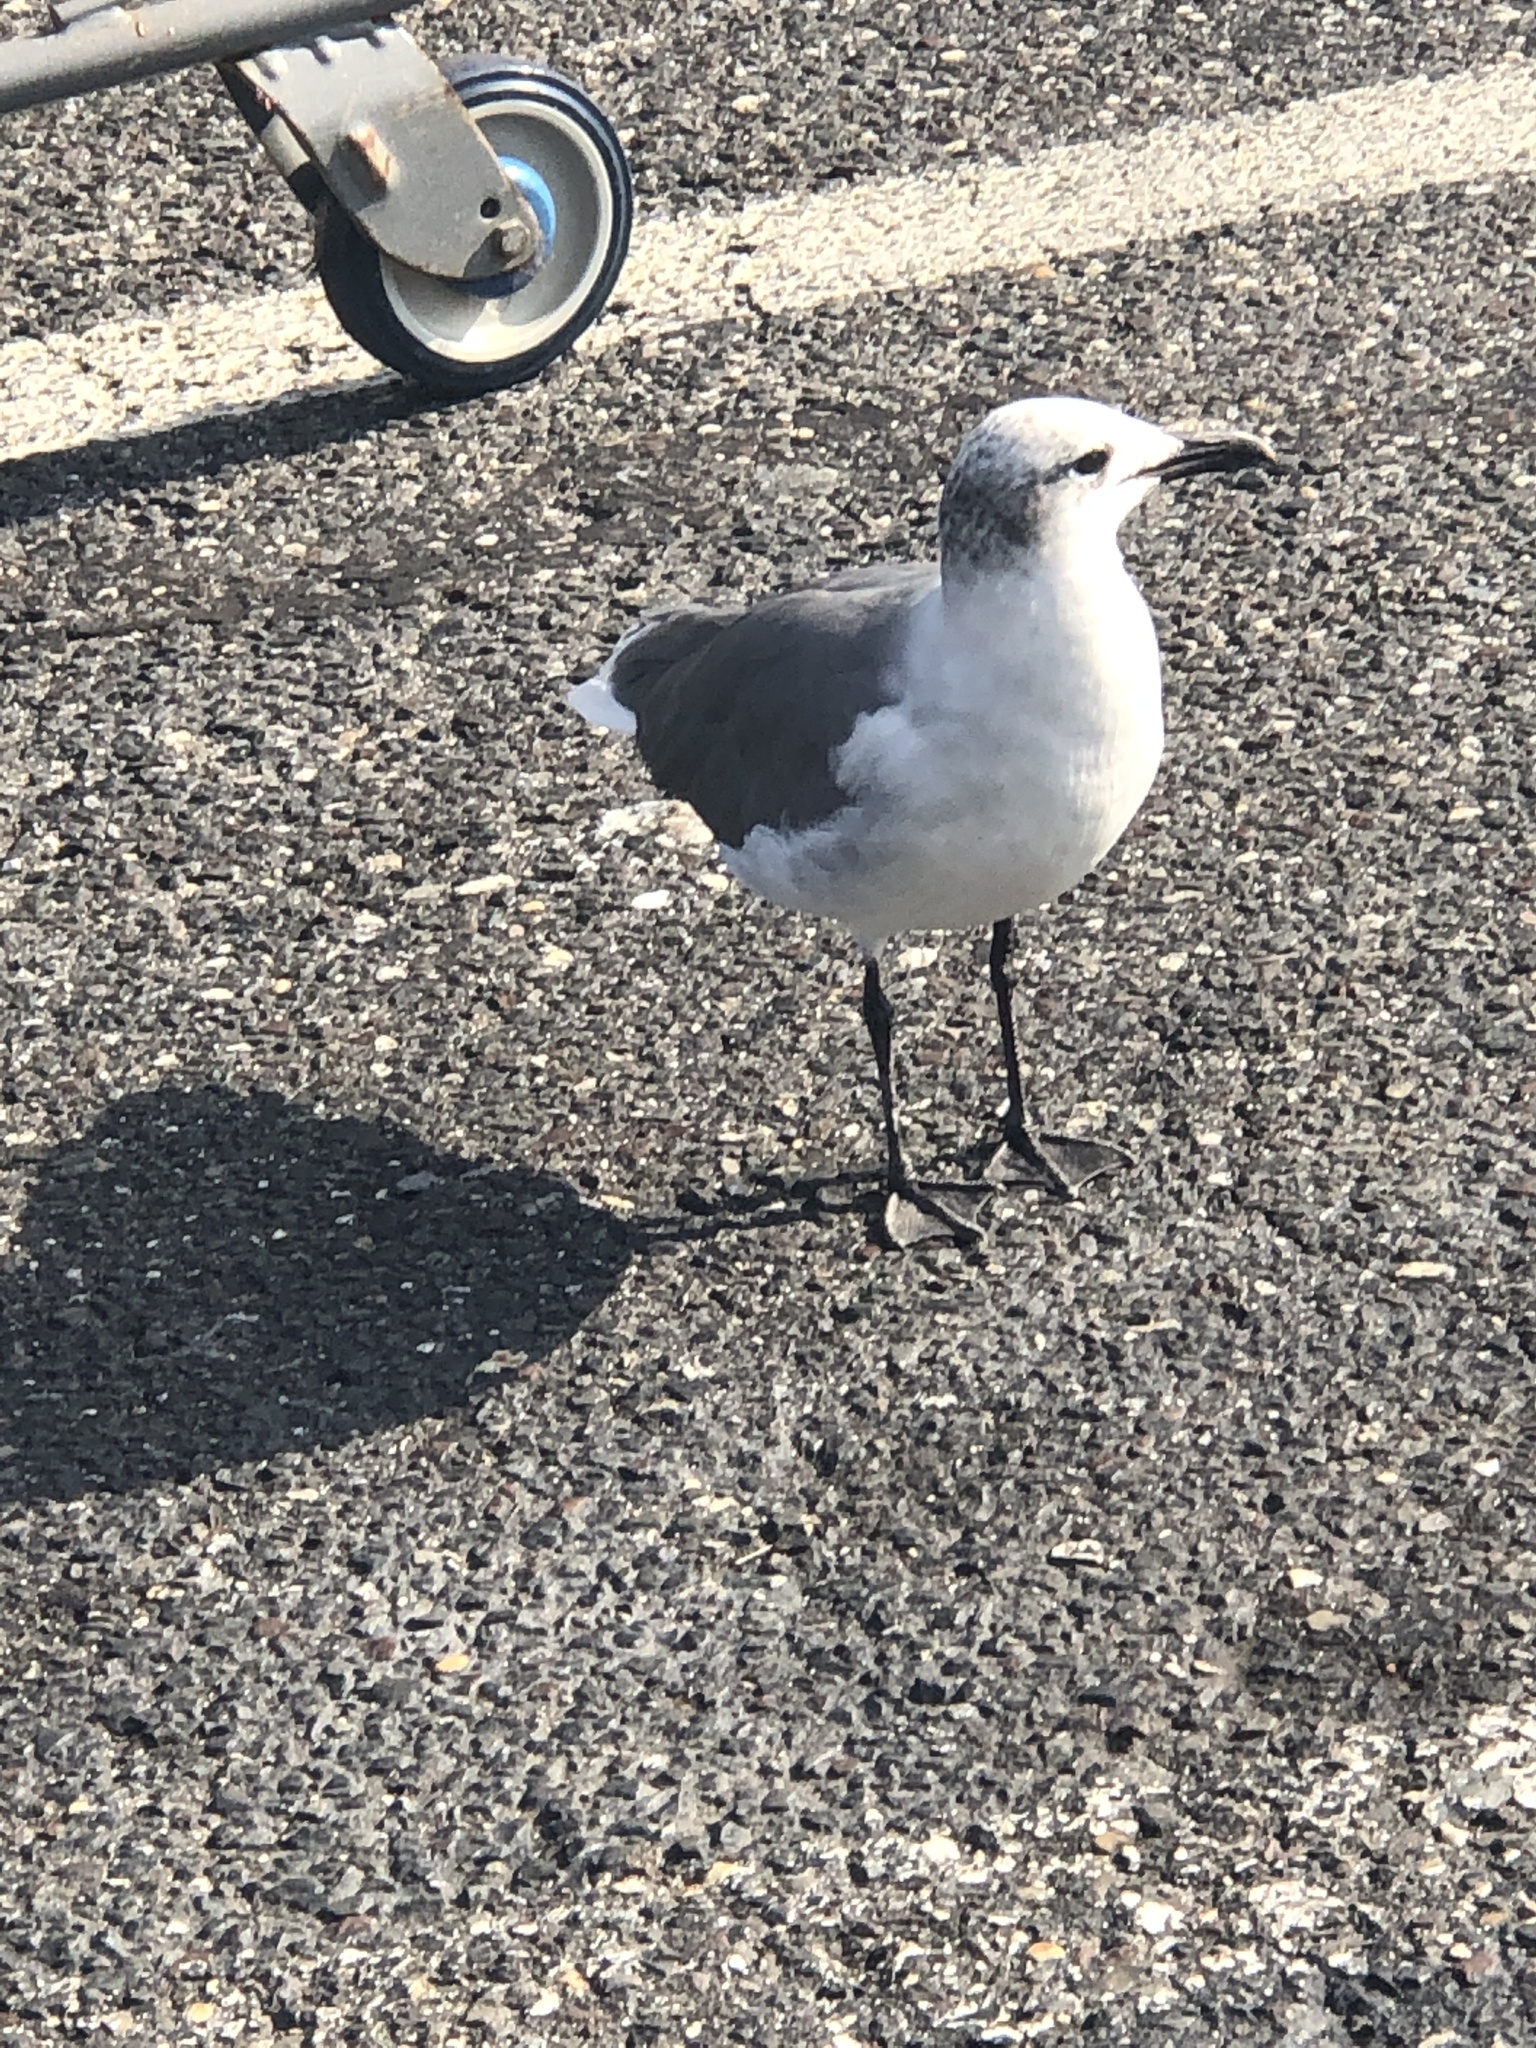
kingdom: Animalia
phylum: Chordata
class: Aves
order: Charadriiformes
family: Laridae
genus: Leucophaeus
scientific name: Leucophaeus atricilla
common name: Laughing gull
